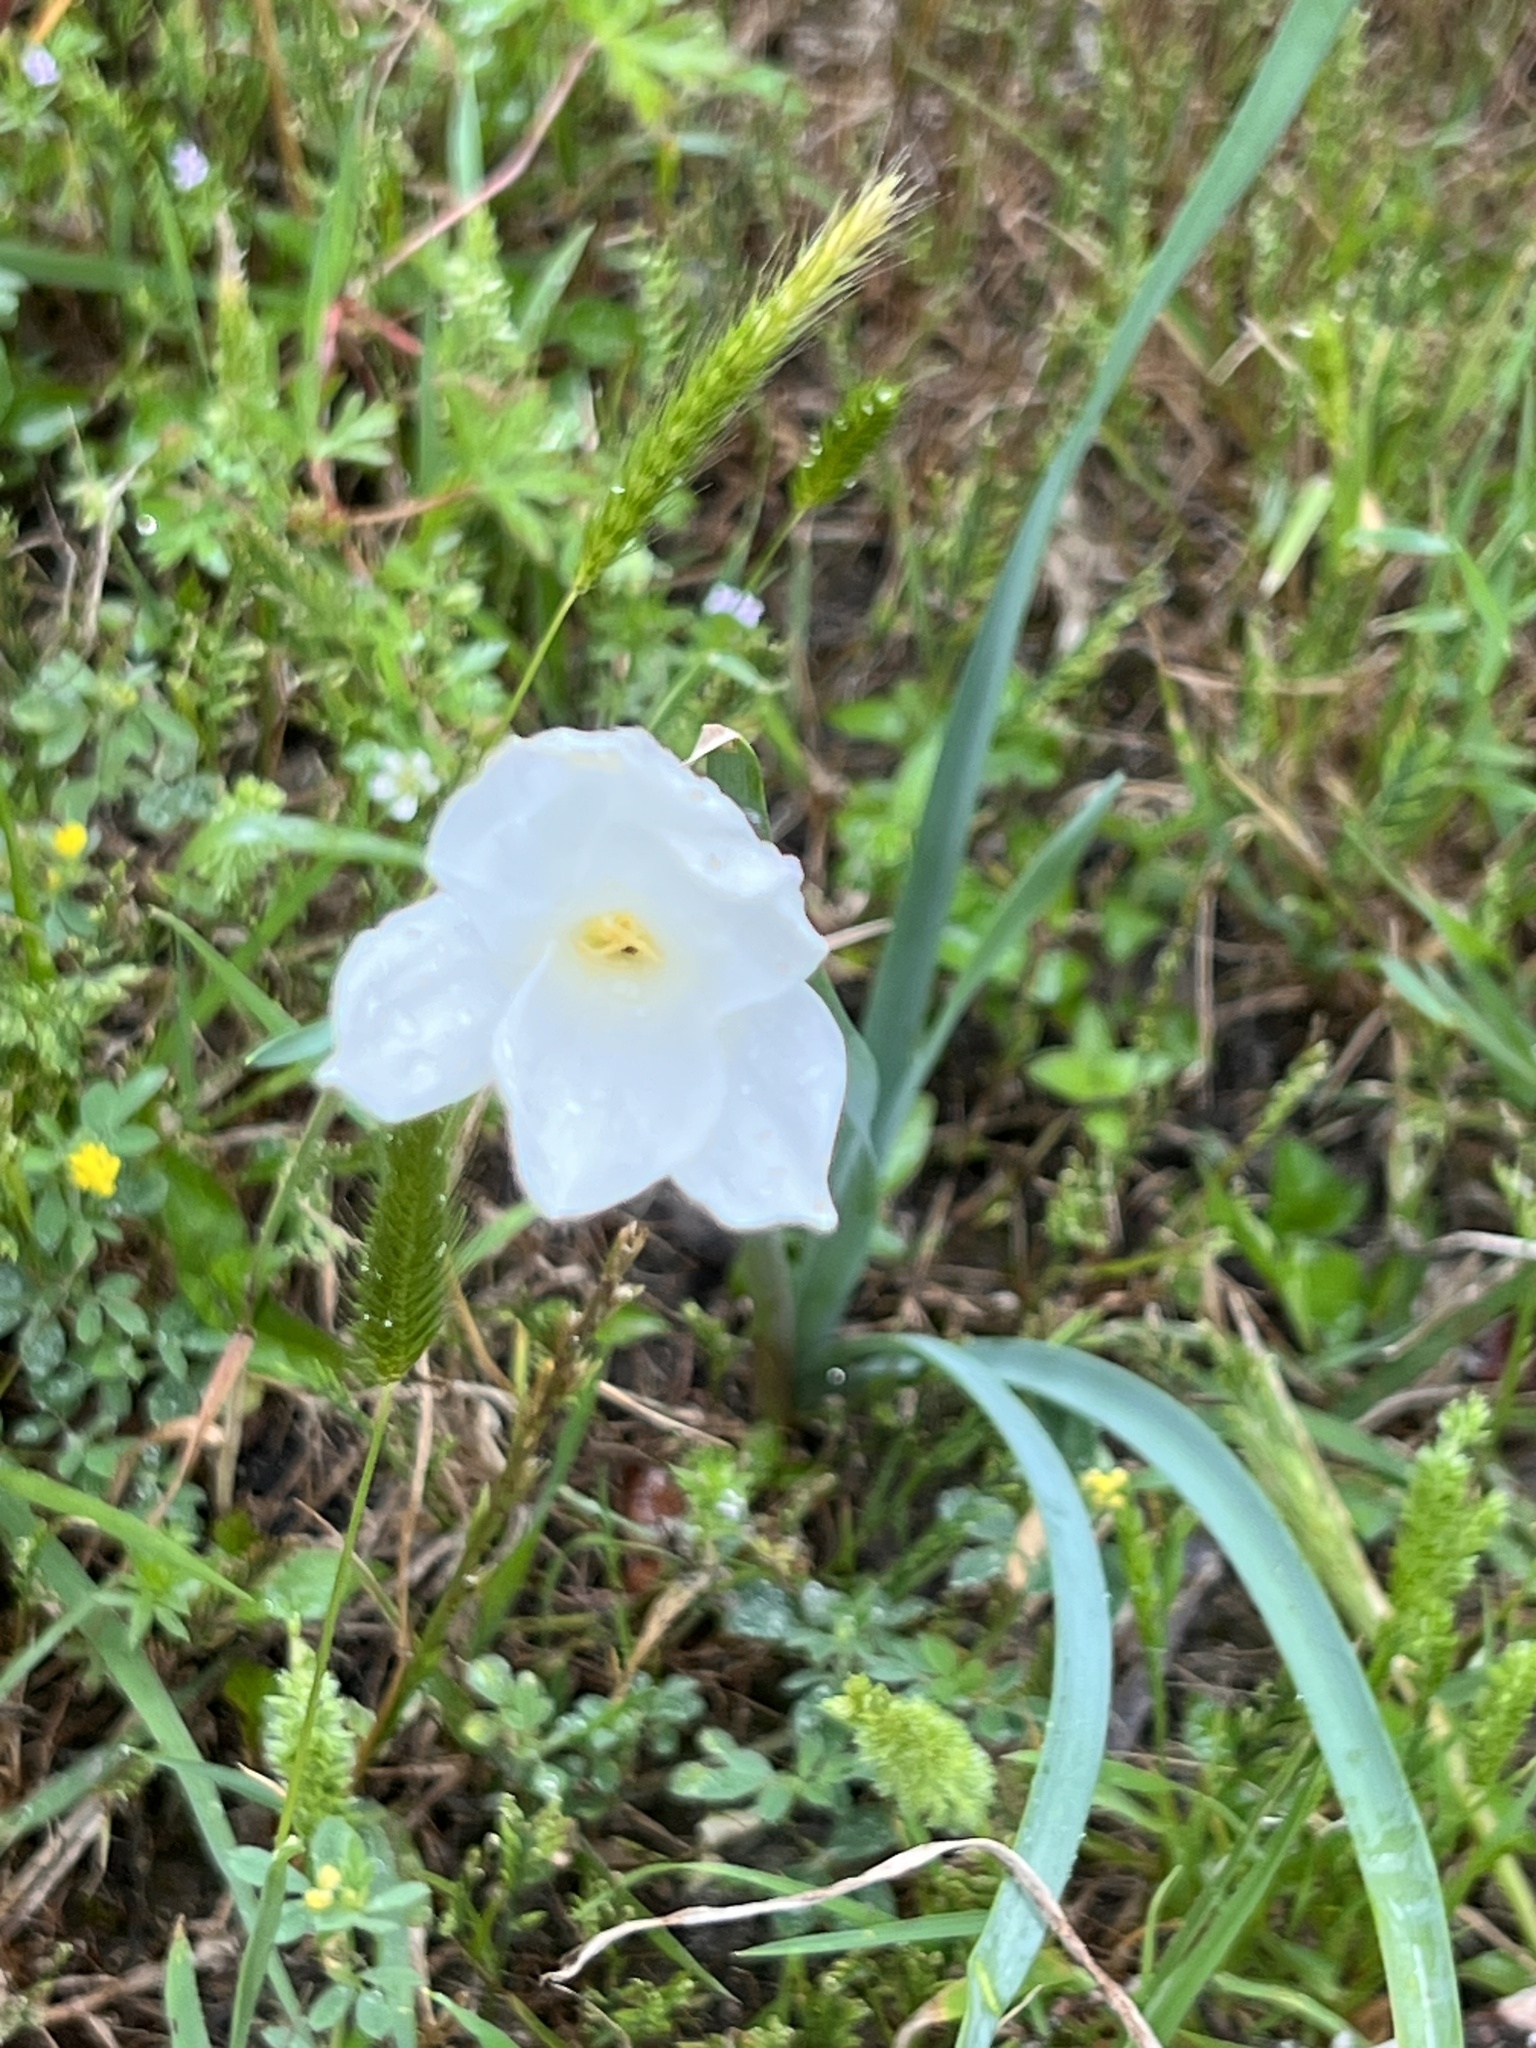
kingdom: Plantae
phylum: Tracheophyta
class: Liliopsida
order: Asparagales
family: Amaryllidaceae
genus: Zephyranthes
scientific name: Zephyranthes drummondii
